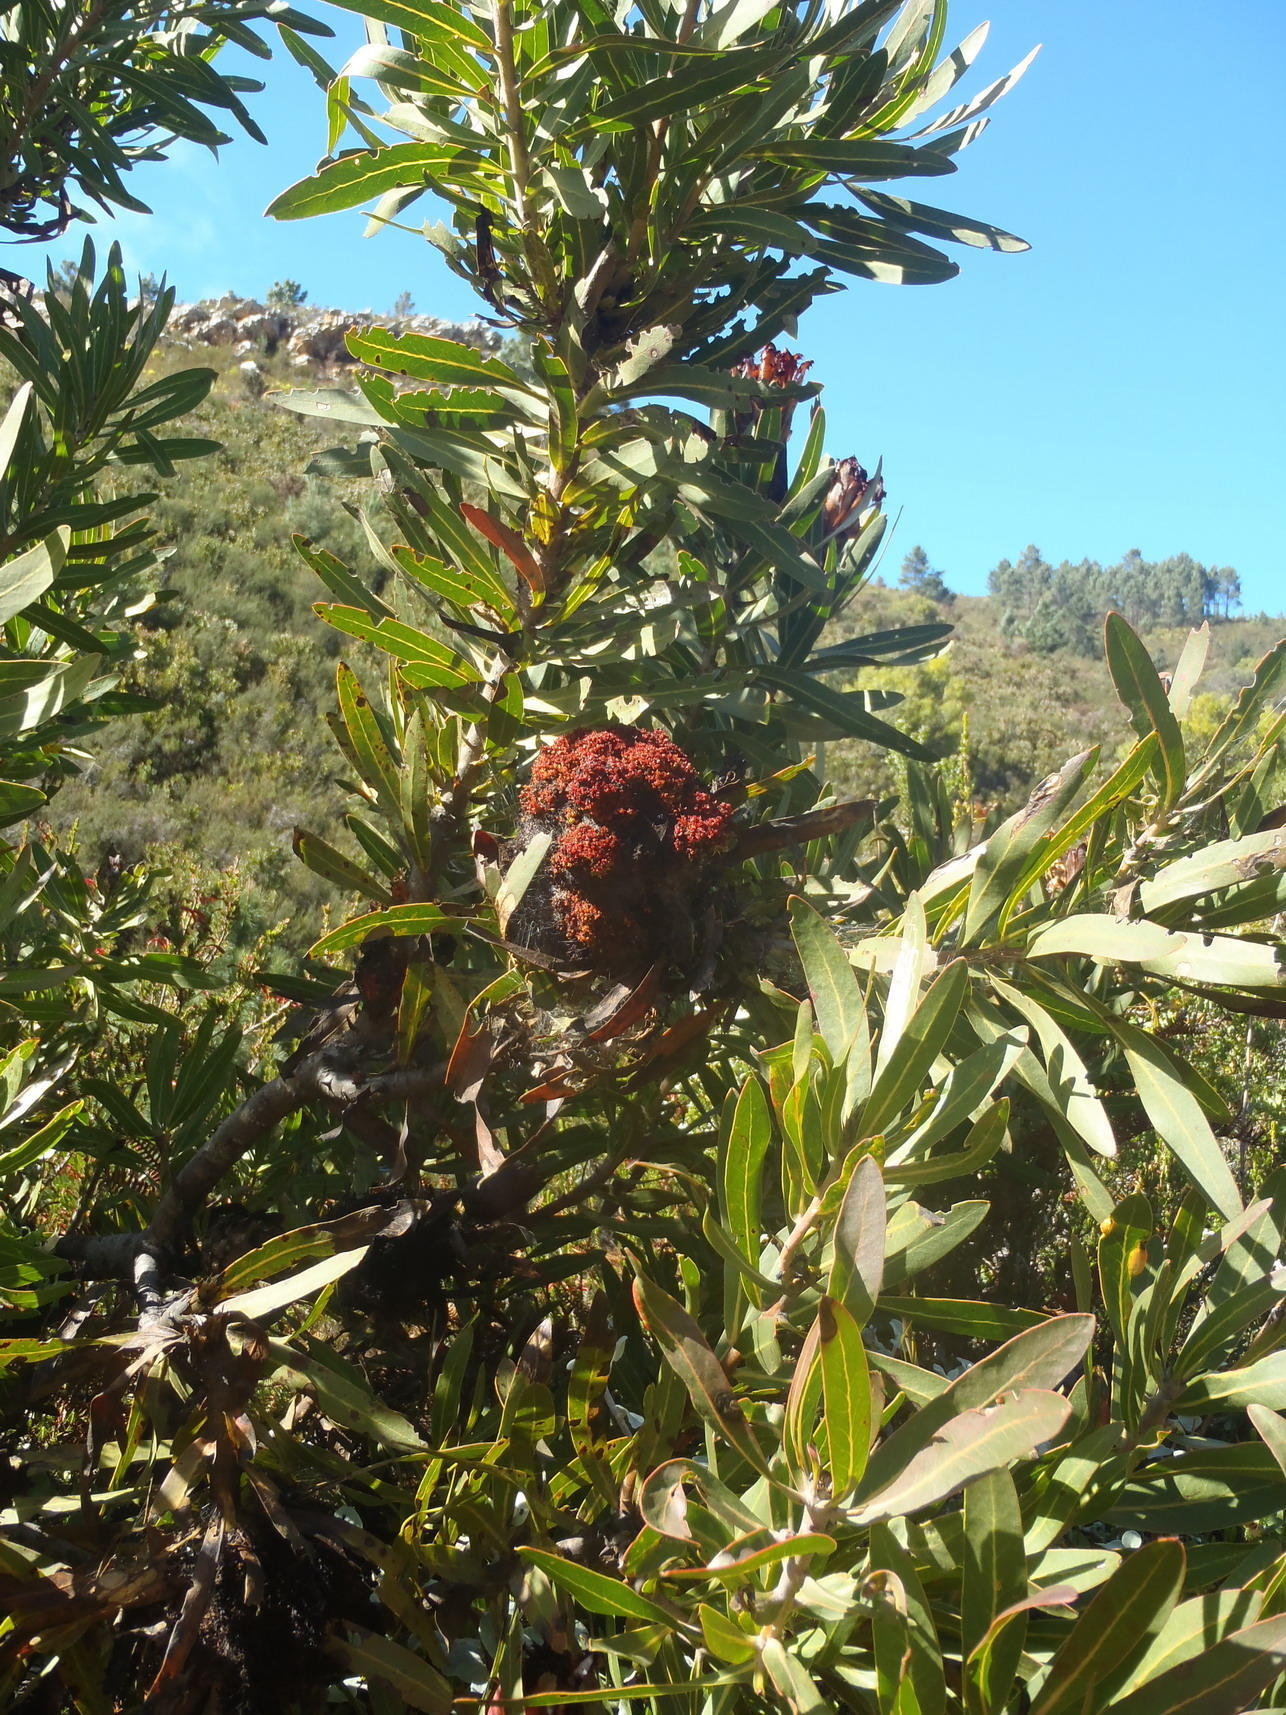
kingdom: Bacteria
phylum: Firmicutes
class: Bacilli
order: Acholeplasmatales
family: Acholeplasmataceae
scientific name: Acholeplasmataceae
